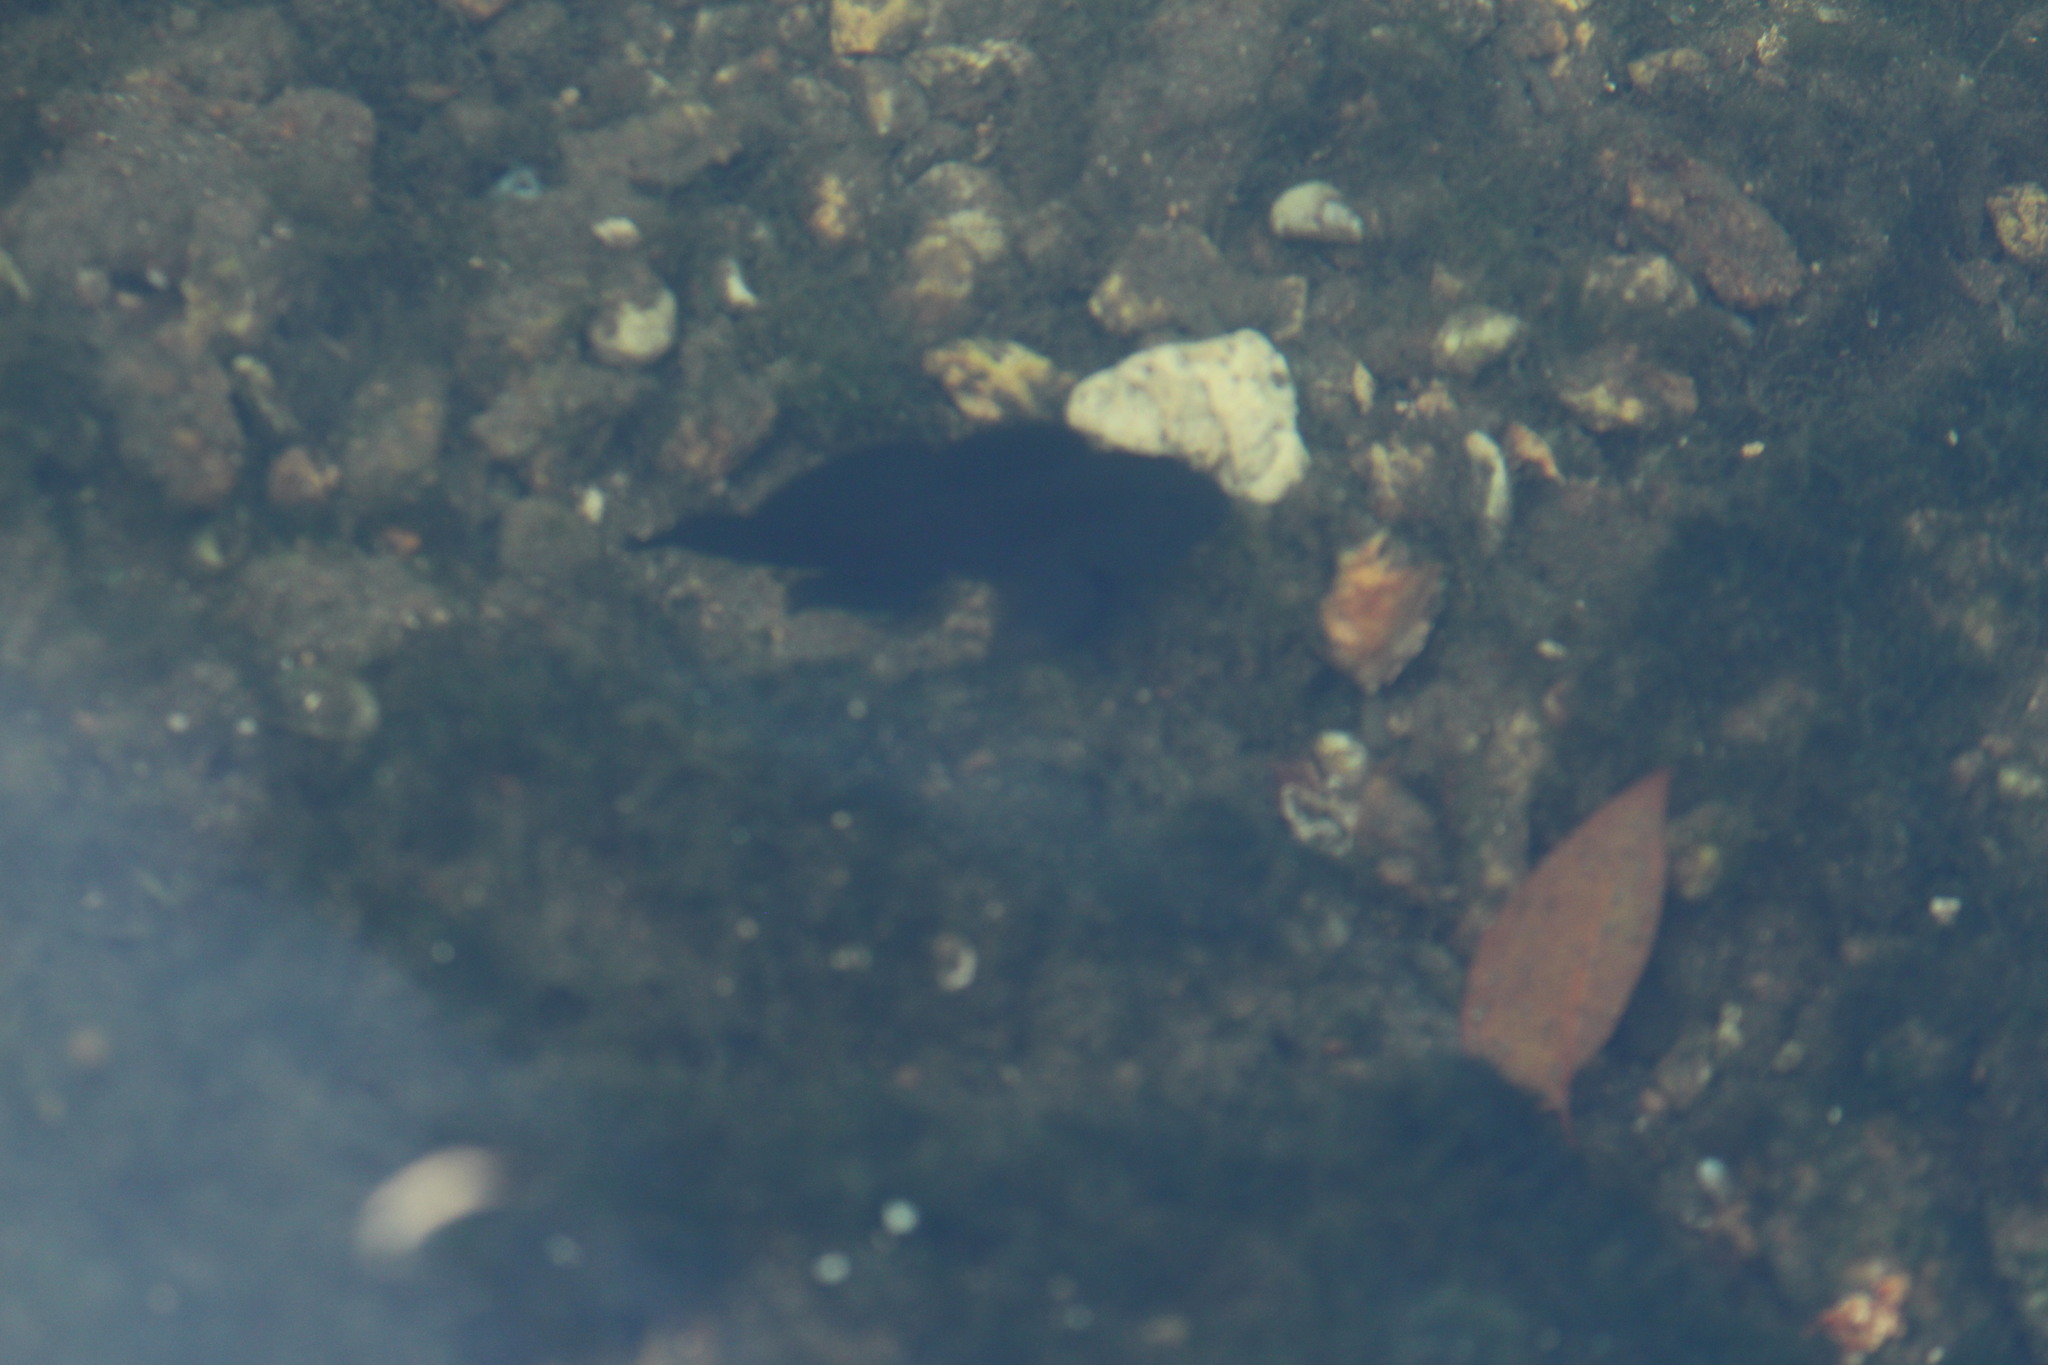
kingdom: Animalia
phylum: Chordata
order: Perciformes
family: Gobiidae
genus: Lophogobius
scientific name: Lophogobius cyprinoides
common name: Crested goby
